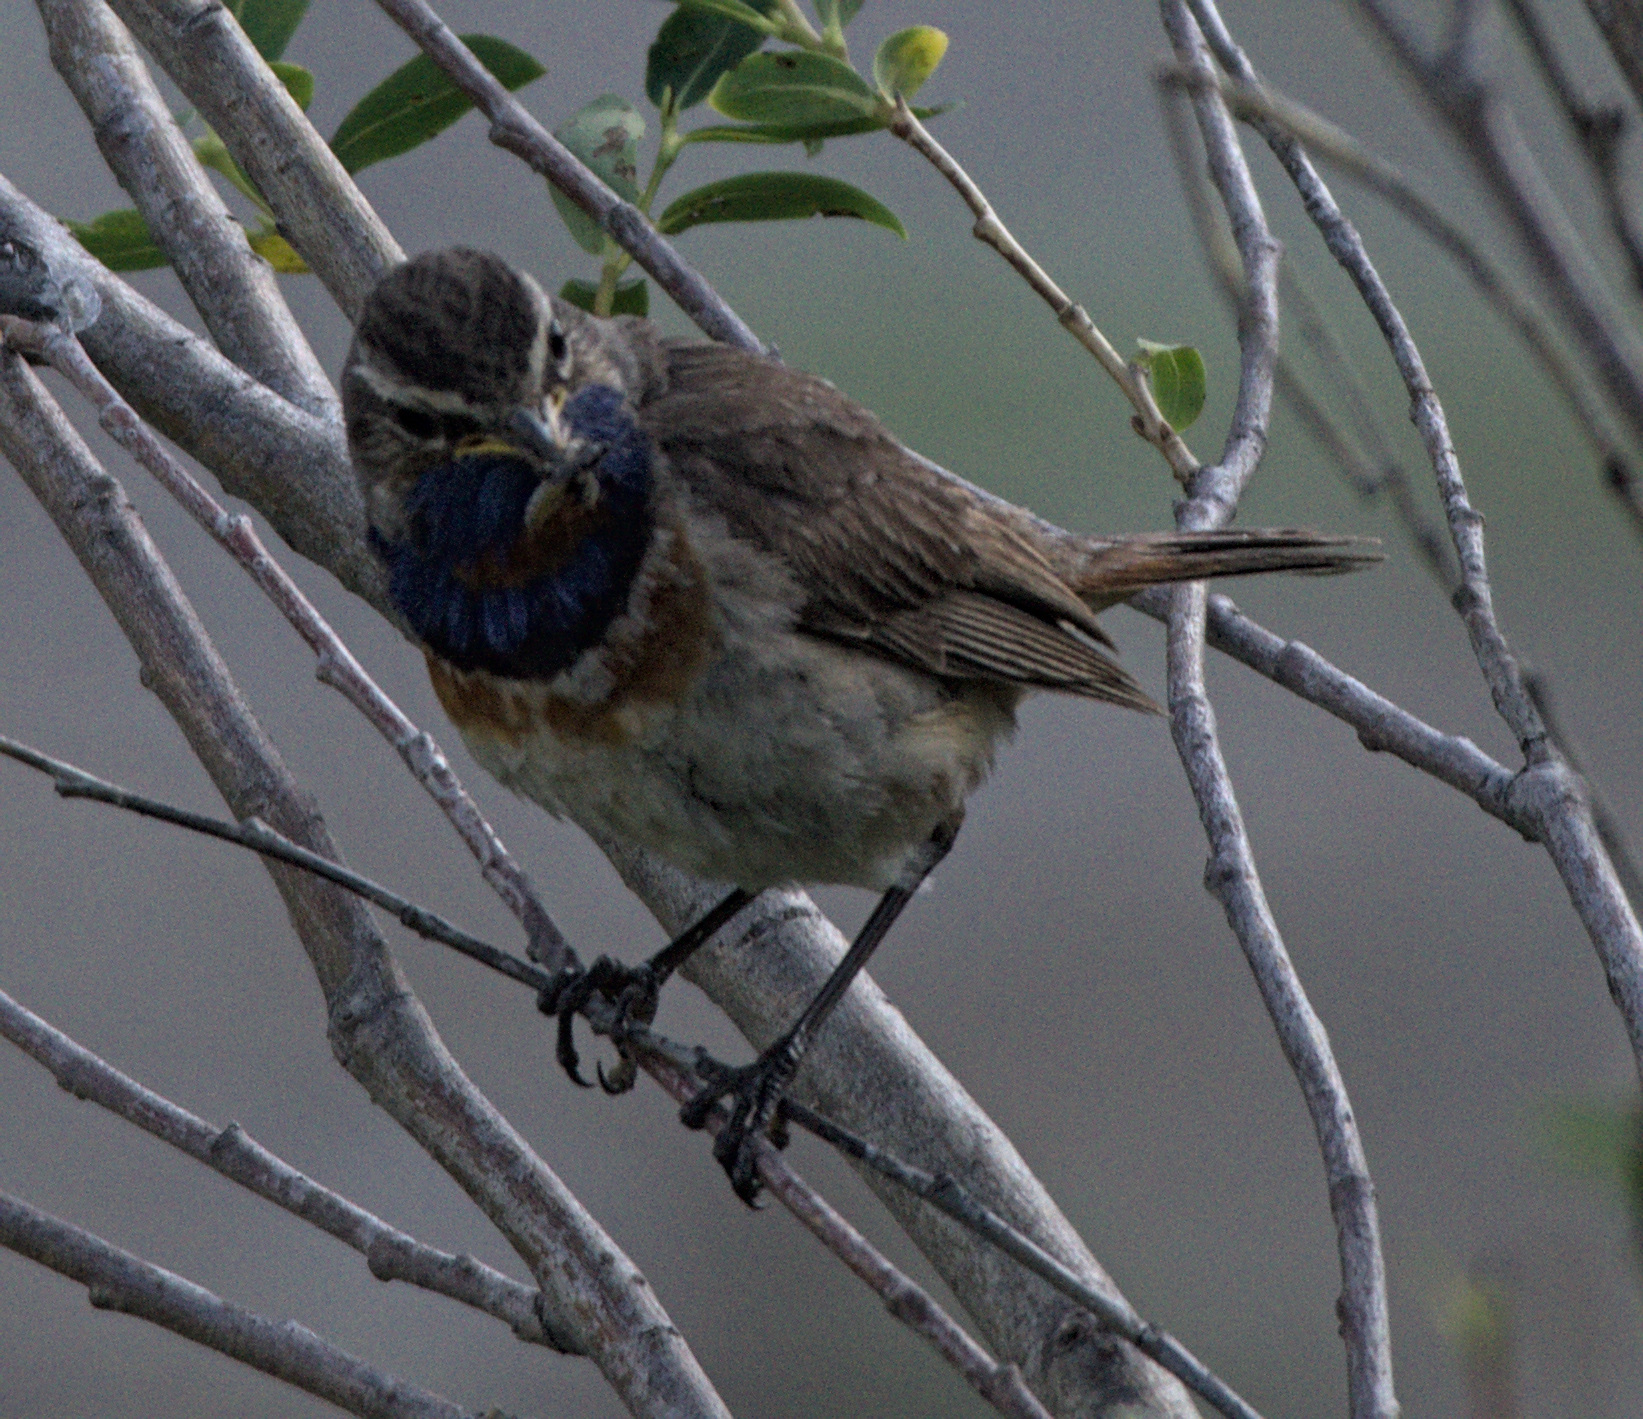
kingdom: Animalia
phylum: Chordata
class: Aves
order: Passeriformes
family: Muscicapidae
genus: Luscinia
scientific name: Luscinia svecica
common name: Bluethroat
